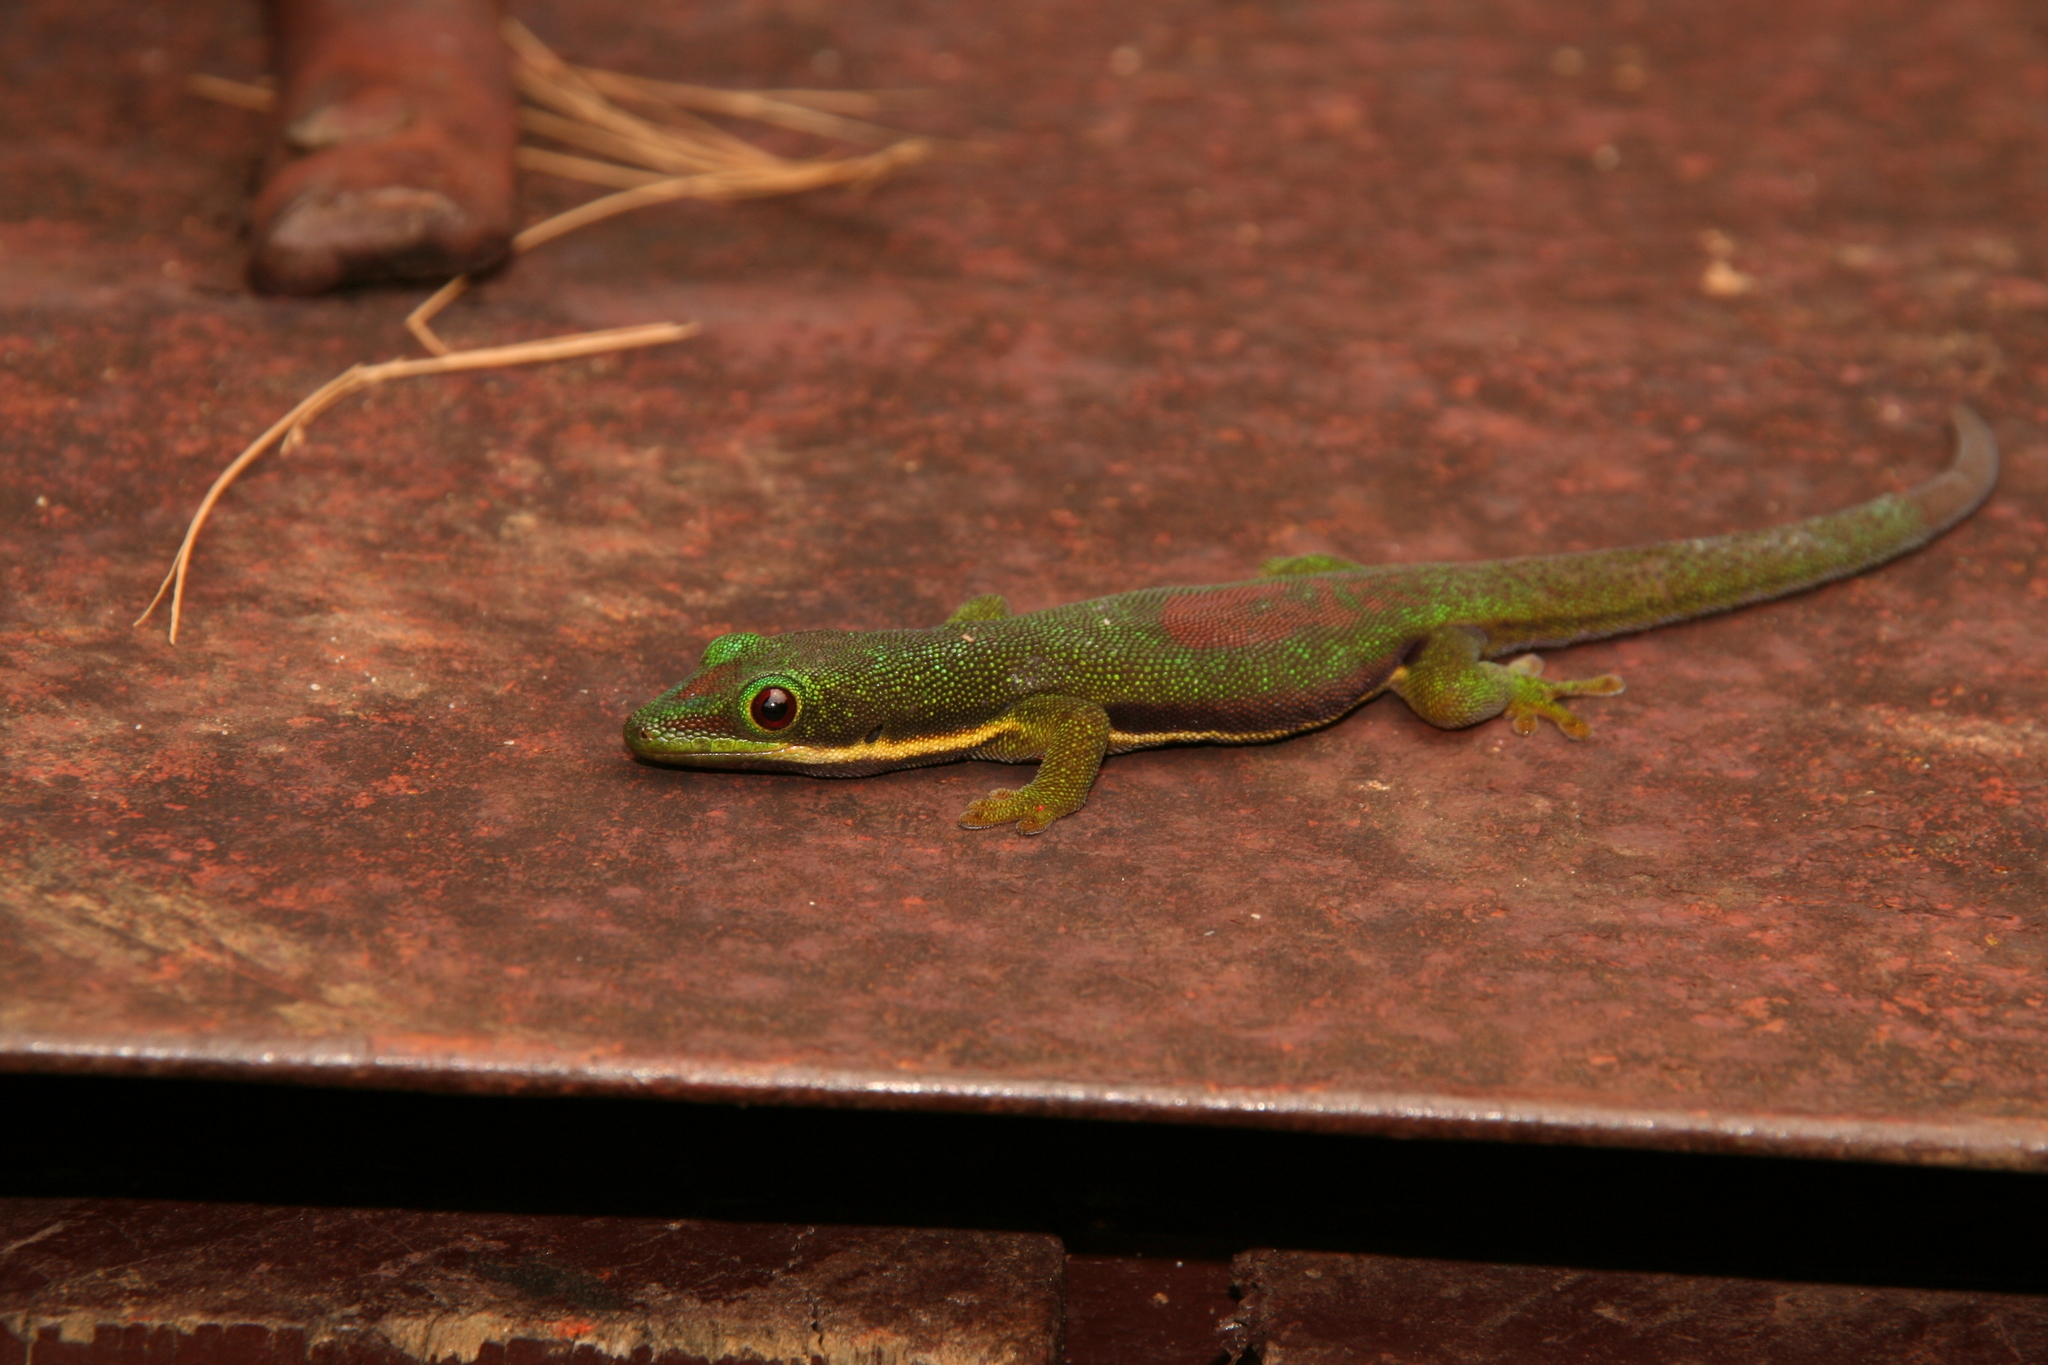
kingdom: Animalia
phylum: Chordata
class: Squamata
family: Gekkonidae
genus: Phelsuma
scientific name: Phelsuma lineata
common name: Lined day gecko
